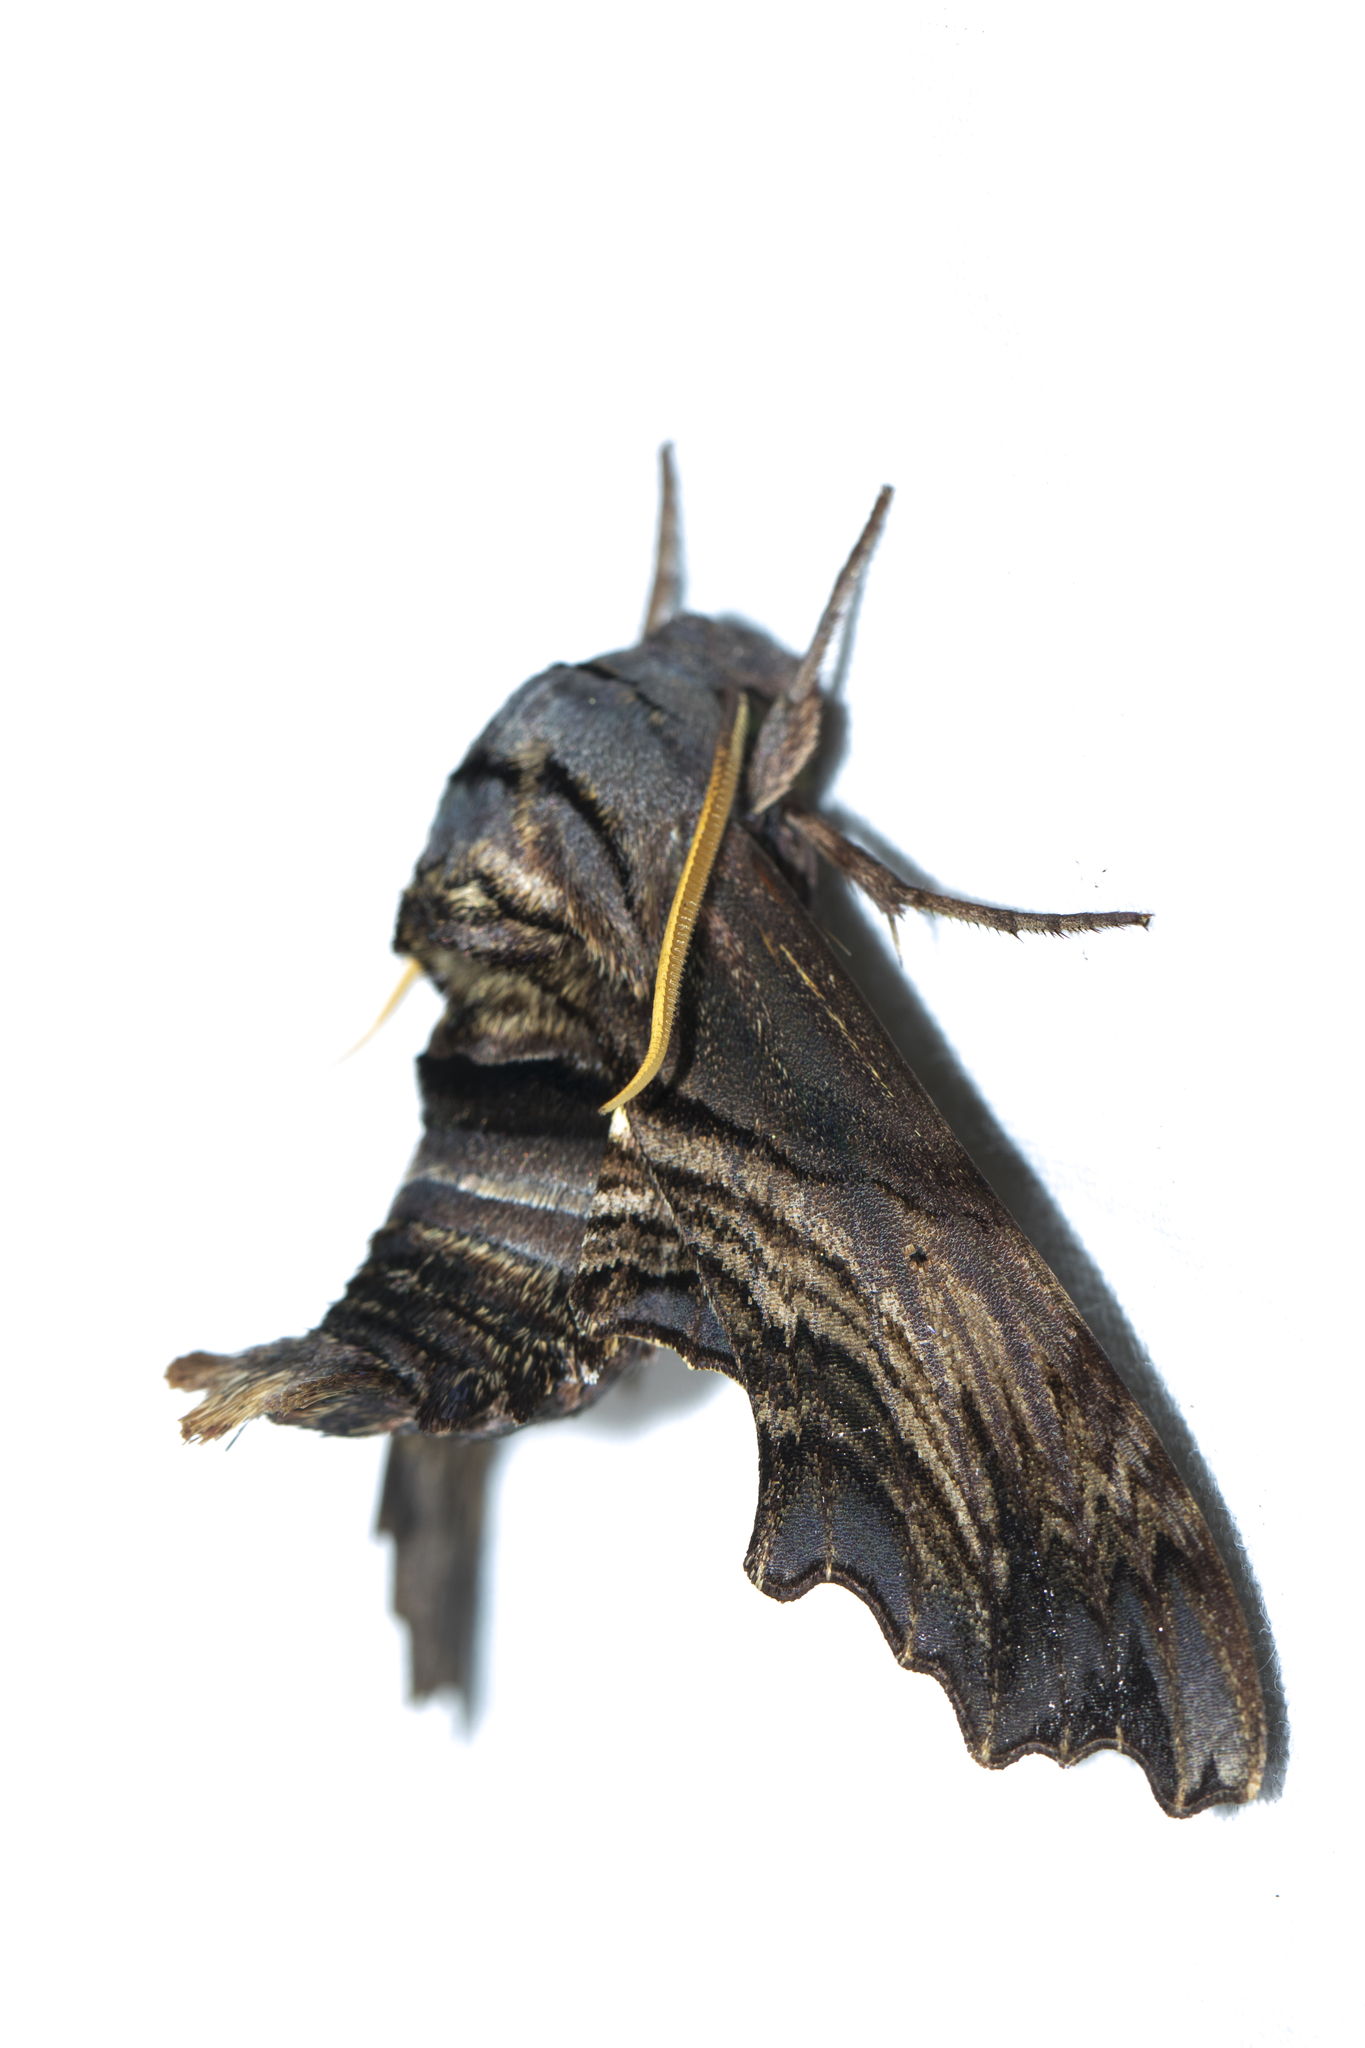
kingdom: Animalia
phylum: Arthropoda
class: Insecta
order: Lepidoptera
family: Sphingidae
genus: Sphecodina
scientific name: Sphecodina abbottii
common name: Abbott's sphinx
